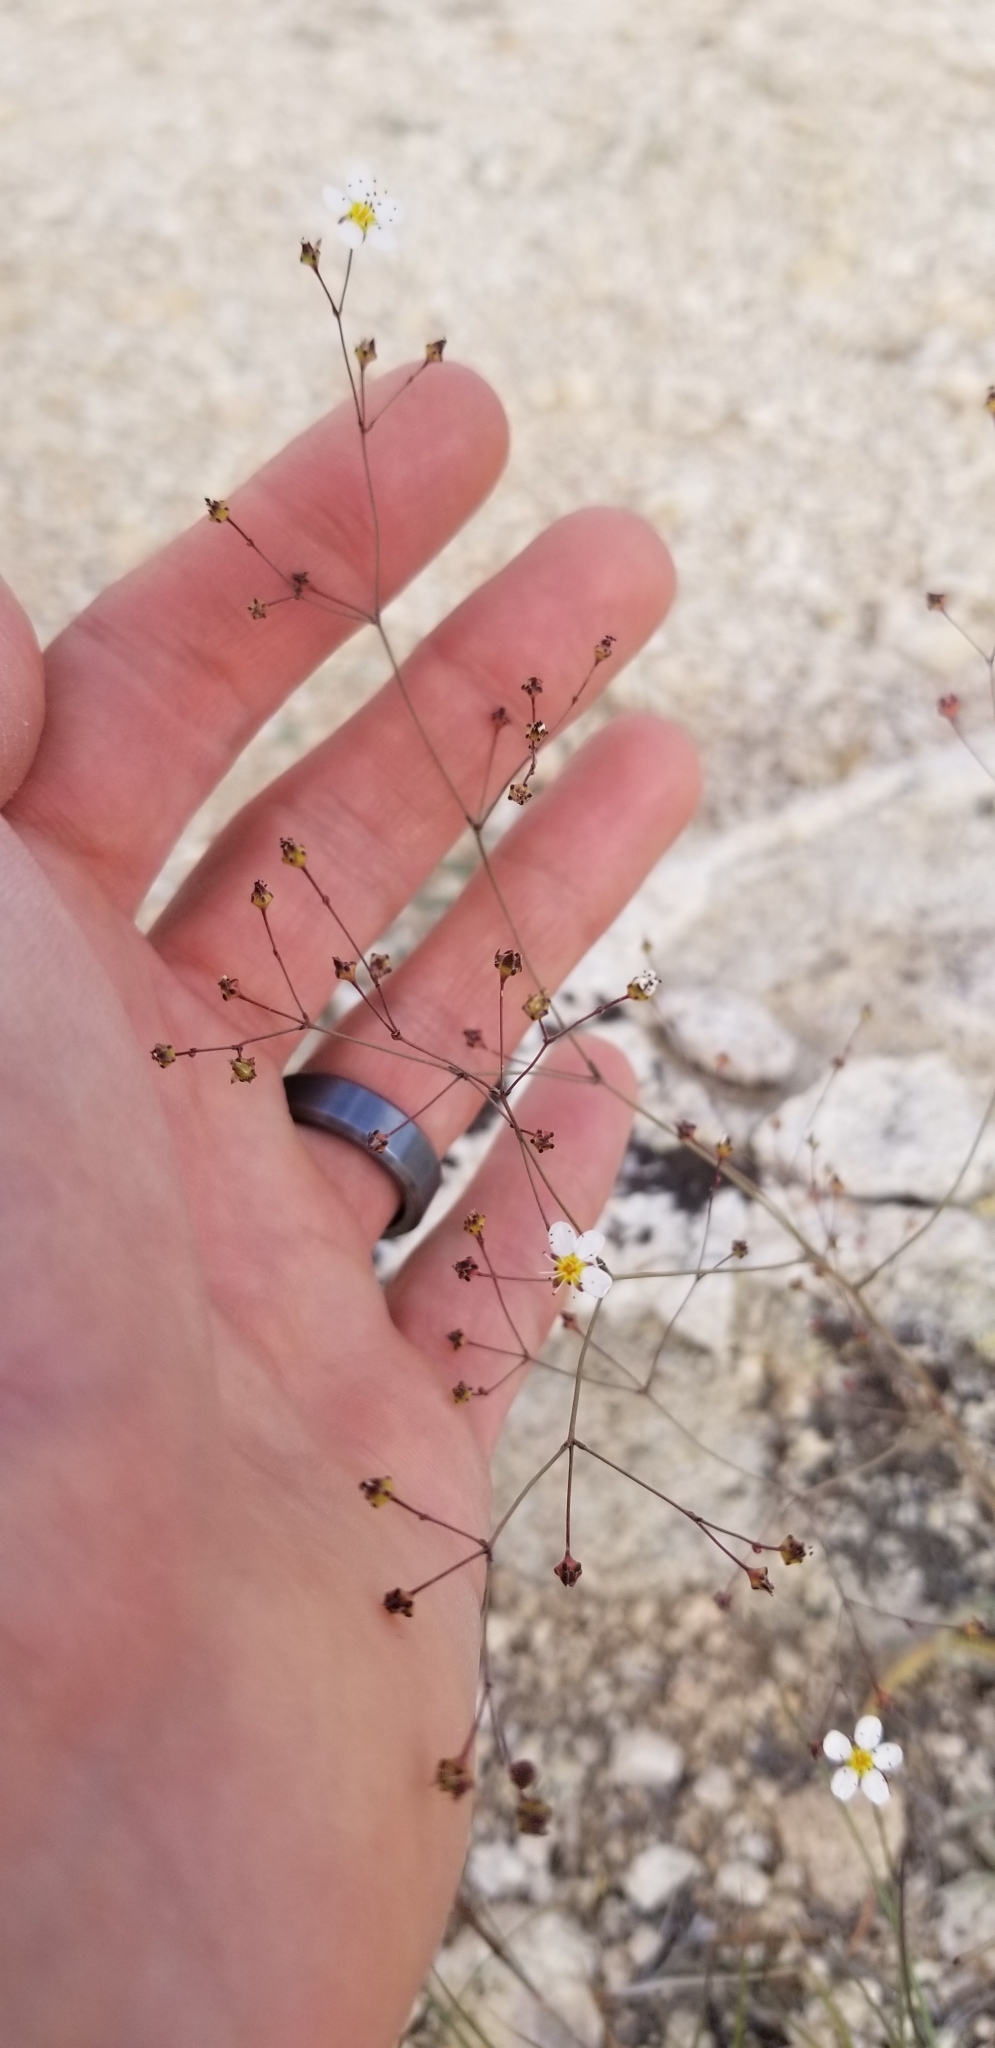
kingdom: Plantae
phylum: Tracheophyta
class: Magnoliopsida
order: Rosales
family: Rosaceae
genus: Potentilla
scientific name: Potentilla santolinoides
